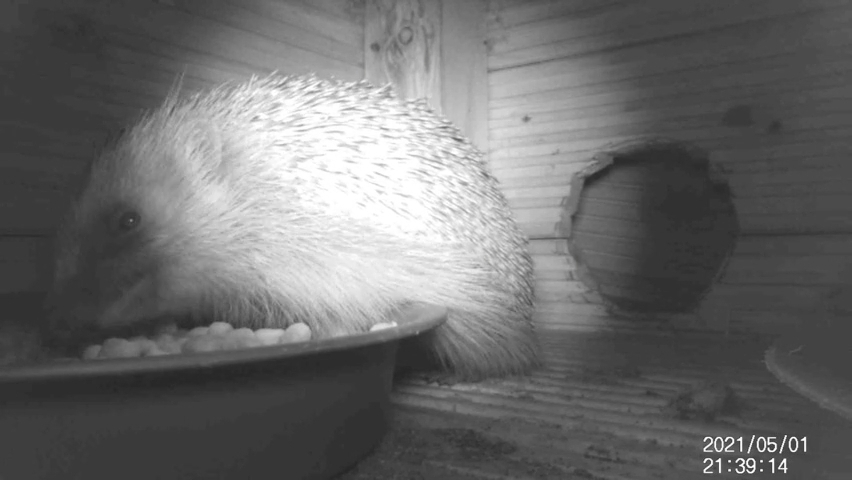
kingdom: Animalia
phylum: Chordata
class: Mammalia
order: Erinaceomorpha
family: Erinaceidae
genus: Erinaceus
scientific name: Erinaceus europaeus
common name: West european hedgehog
